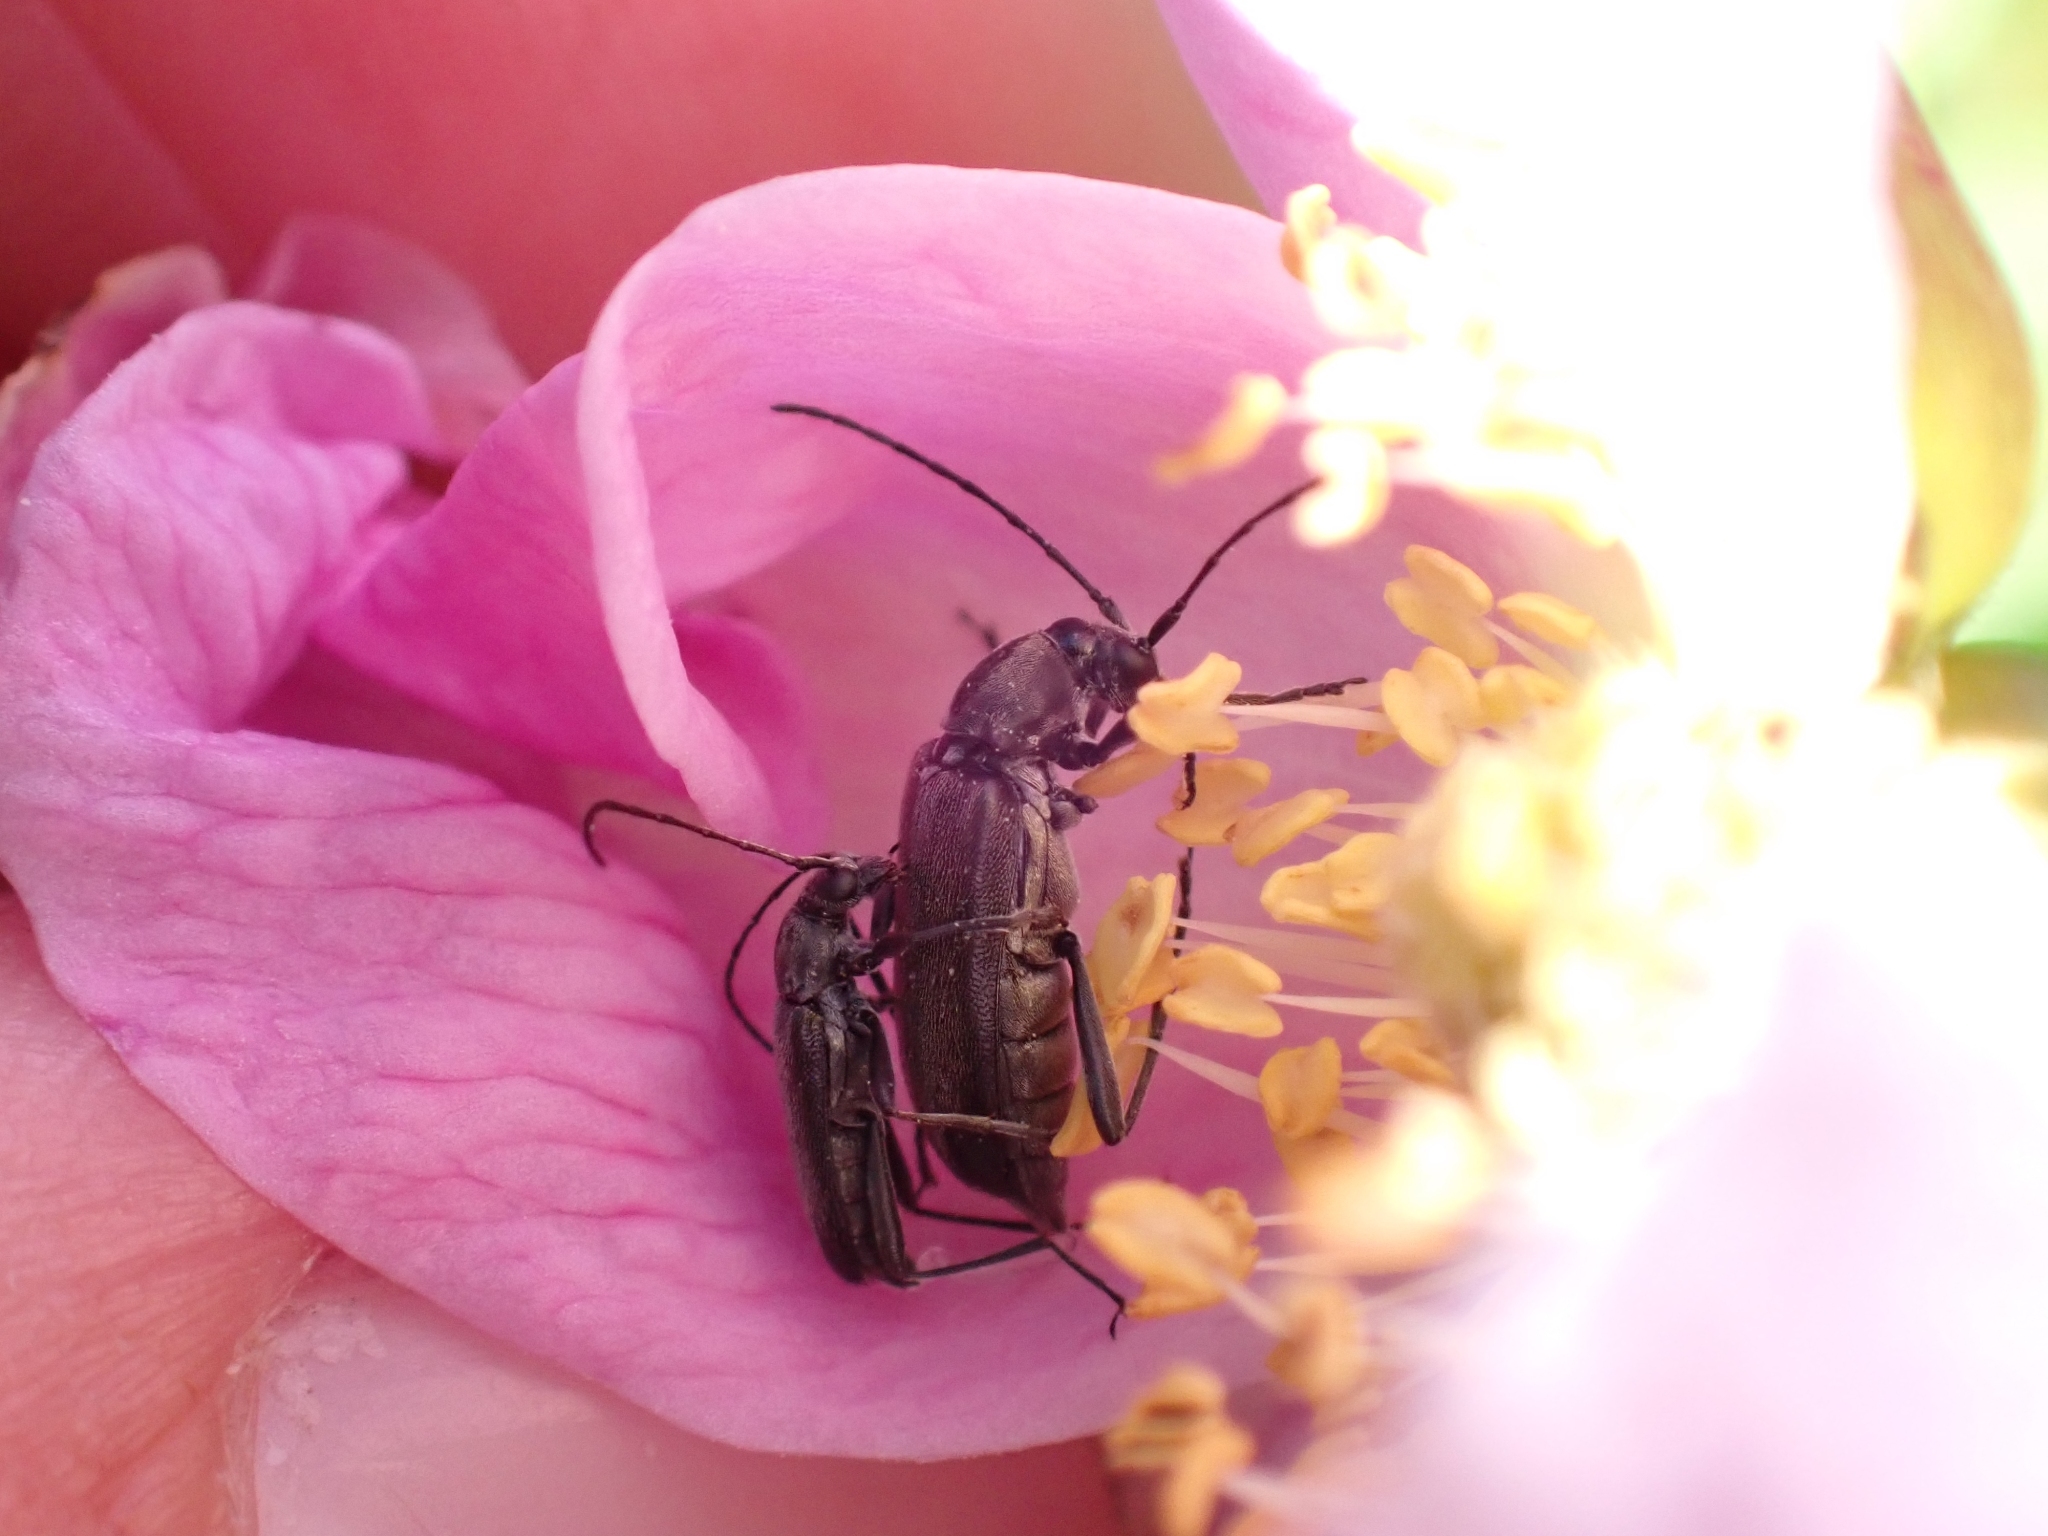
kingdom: Animalia
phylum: Arthropoda
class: Insecta
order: Coleoptera
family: Cerambycidae
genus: Grammoptera
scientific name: Grammoptera subargentata
